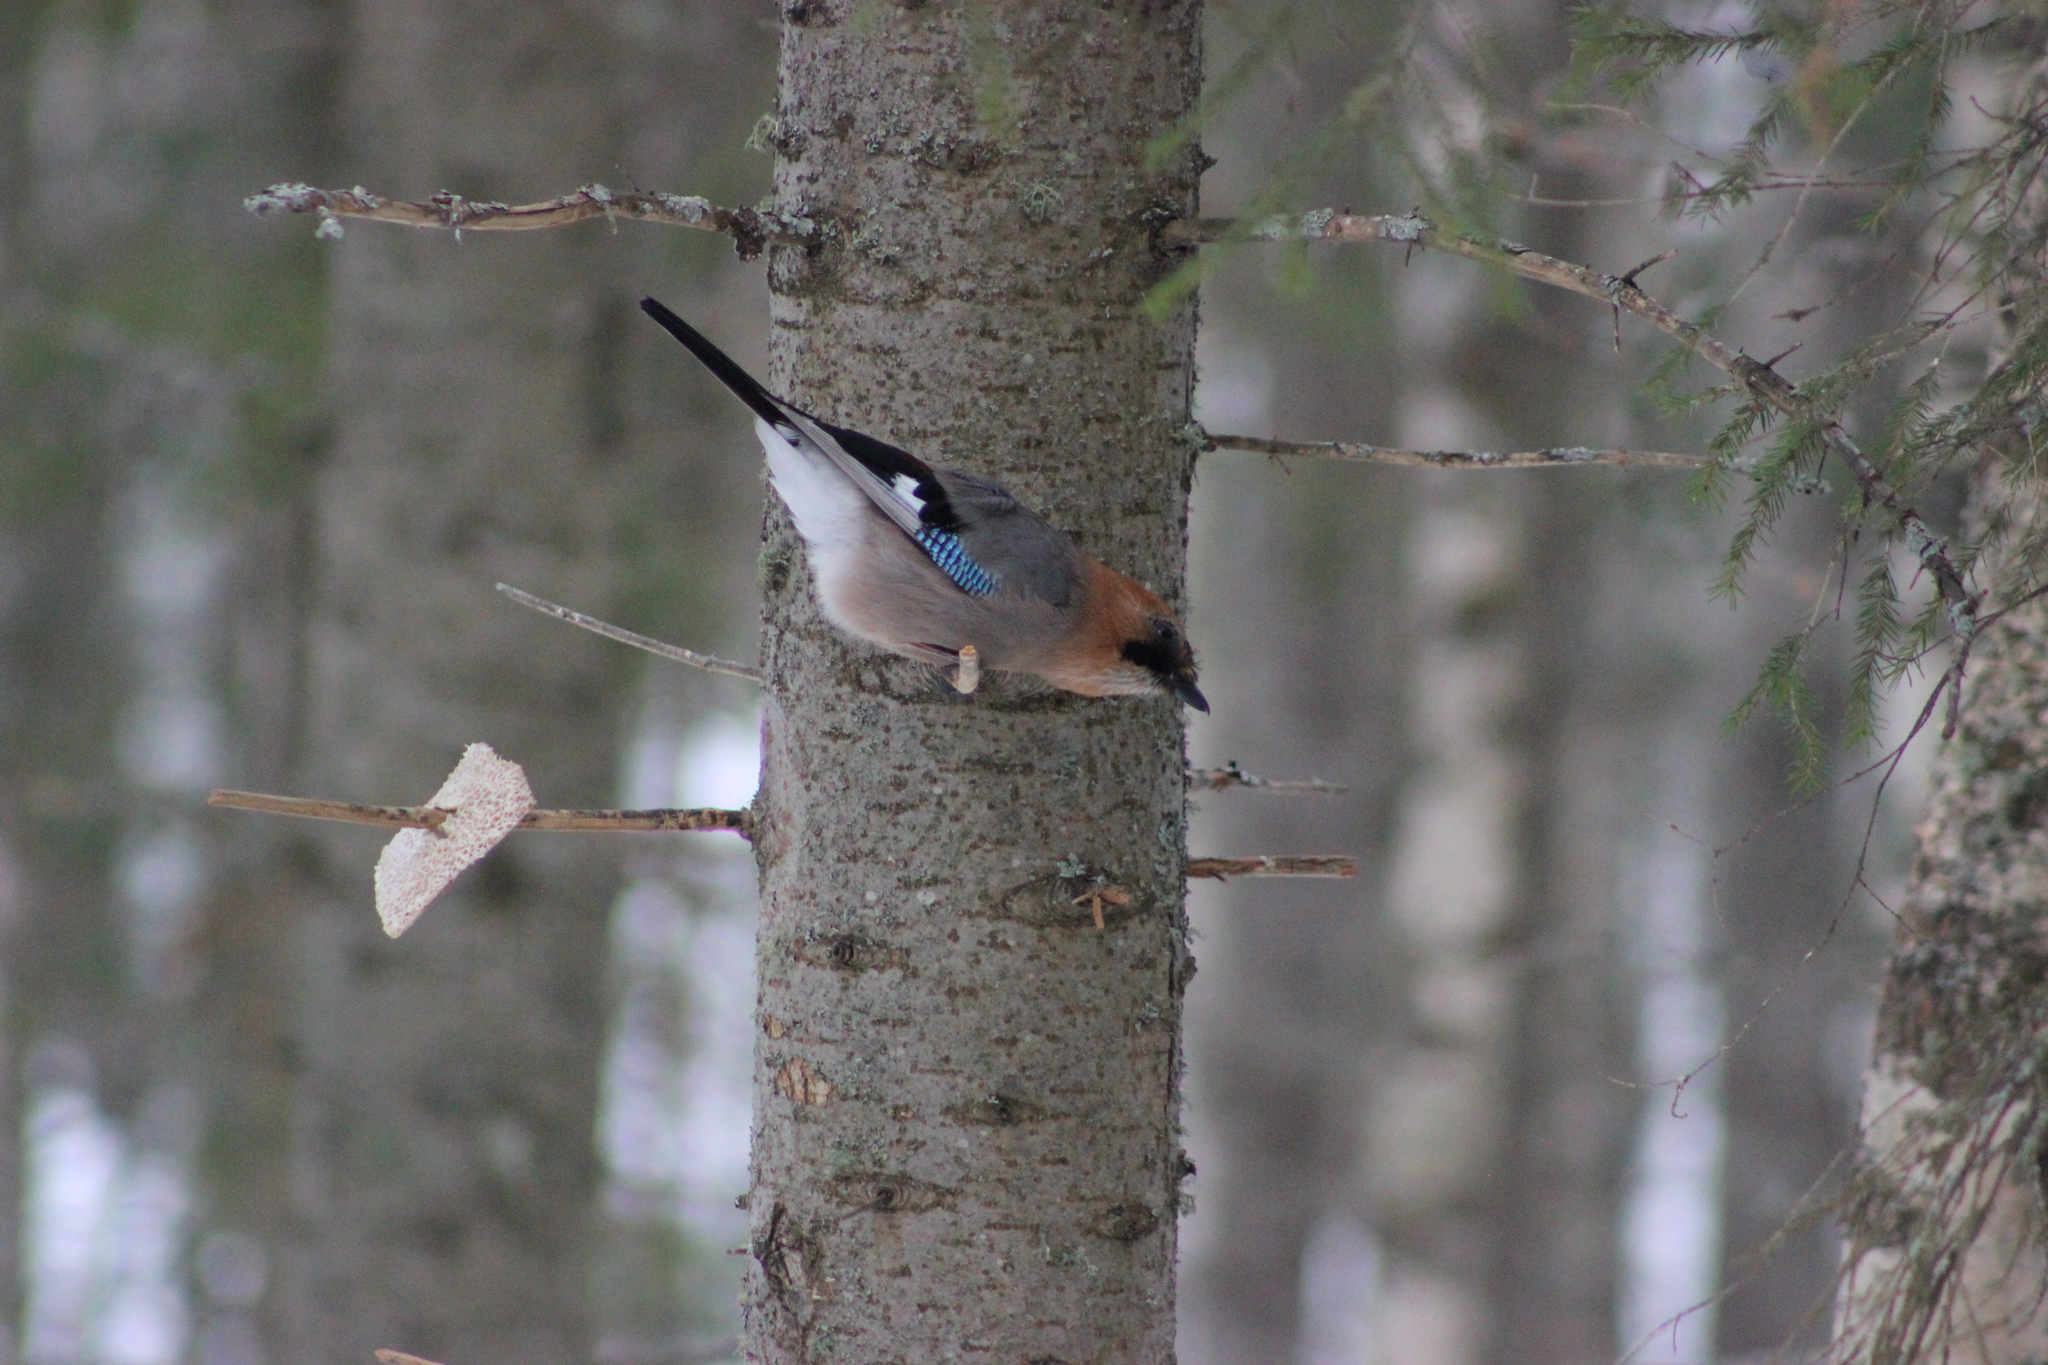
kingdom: Animalia
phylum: Chordata
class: Aves
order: Passeriformes
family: Corvidae
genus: Garrulus
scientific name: Garrulus glandarius
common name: Eurasian jay
